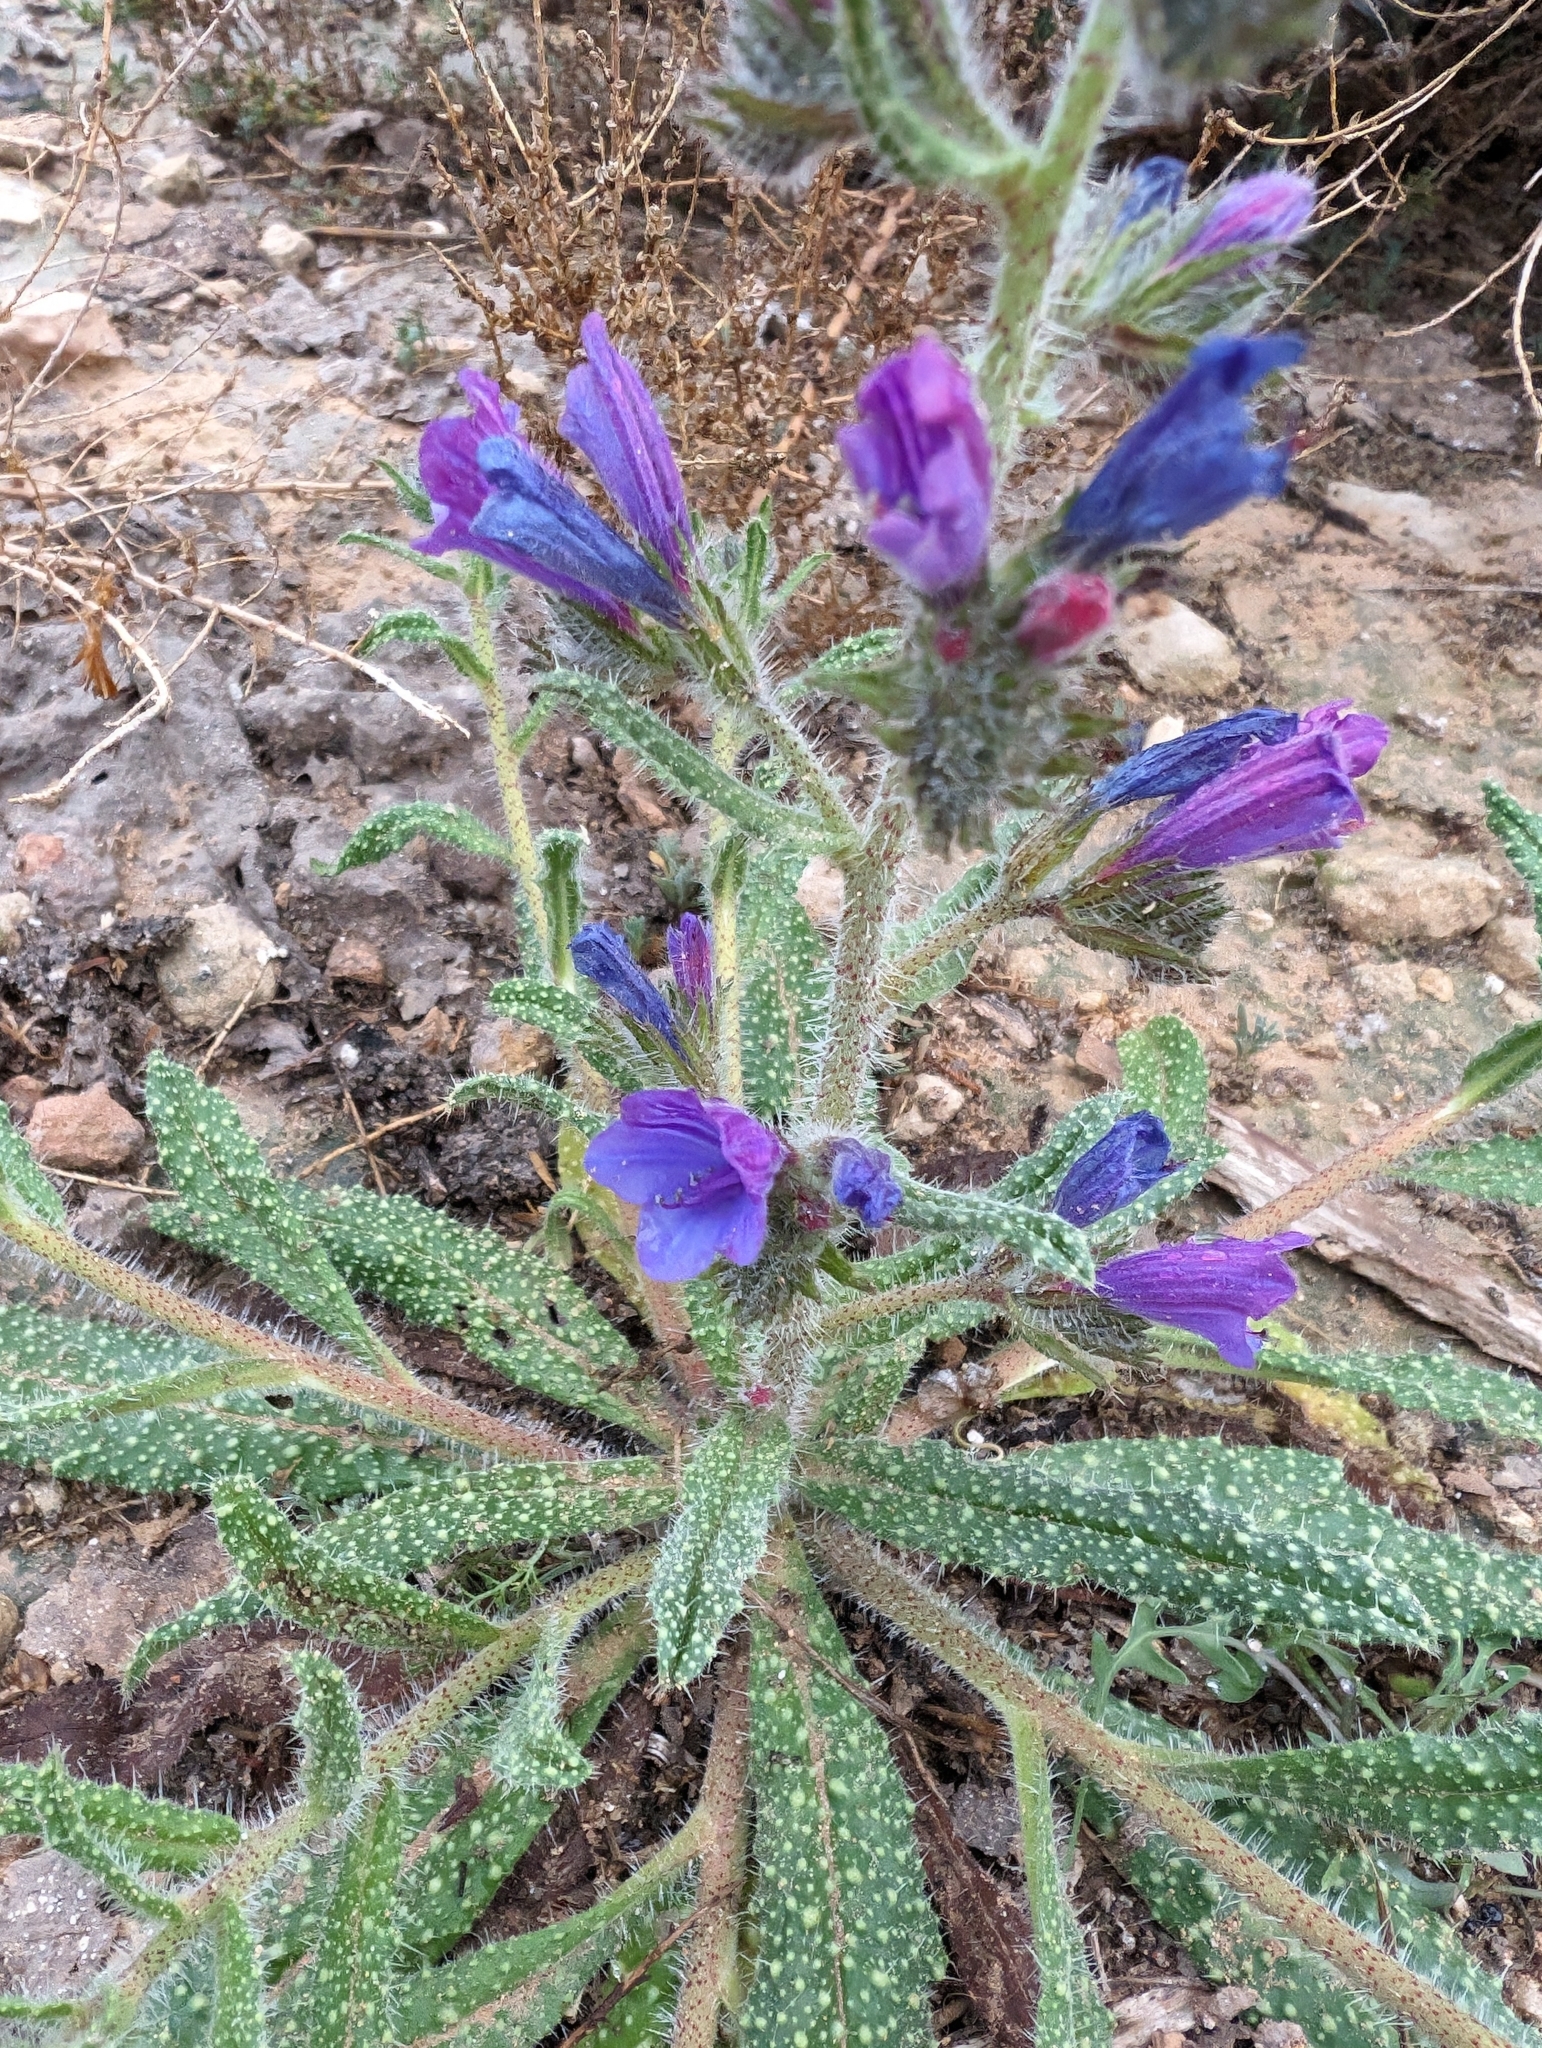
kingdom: Plantae
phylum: Tracheophyta
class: Magnoliopsida
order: Boraginales
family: Boraginaceae
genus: Echium
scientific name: Echium creticum
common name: Cretan viper's bugloss
